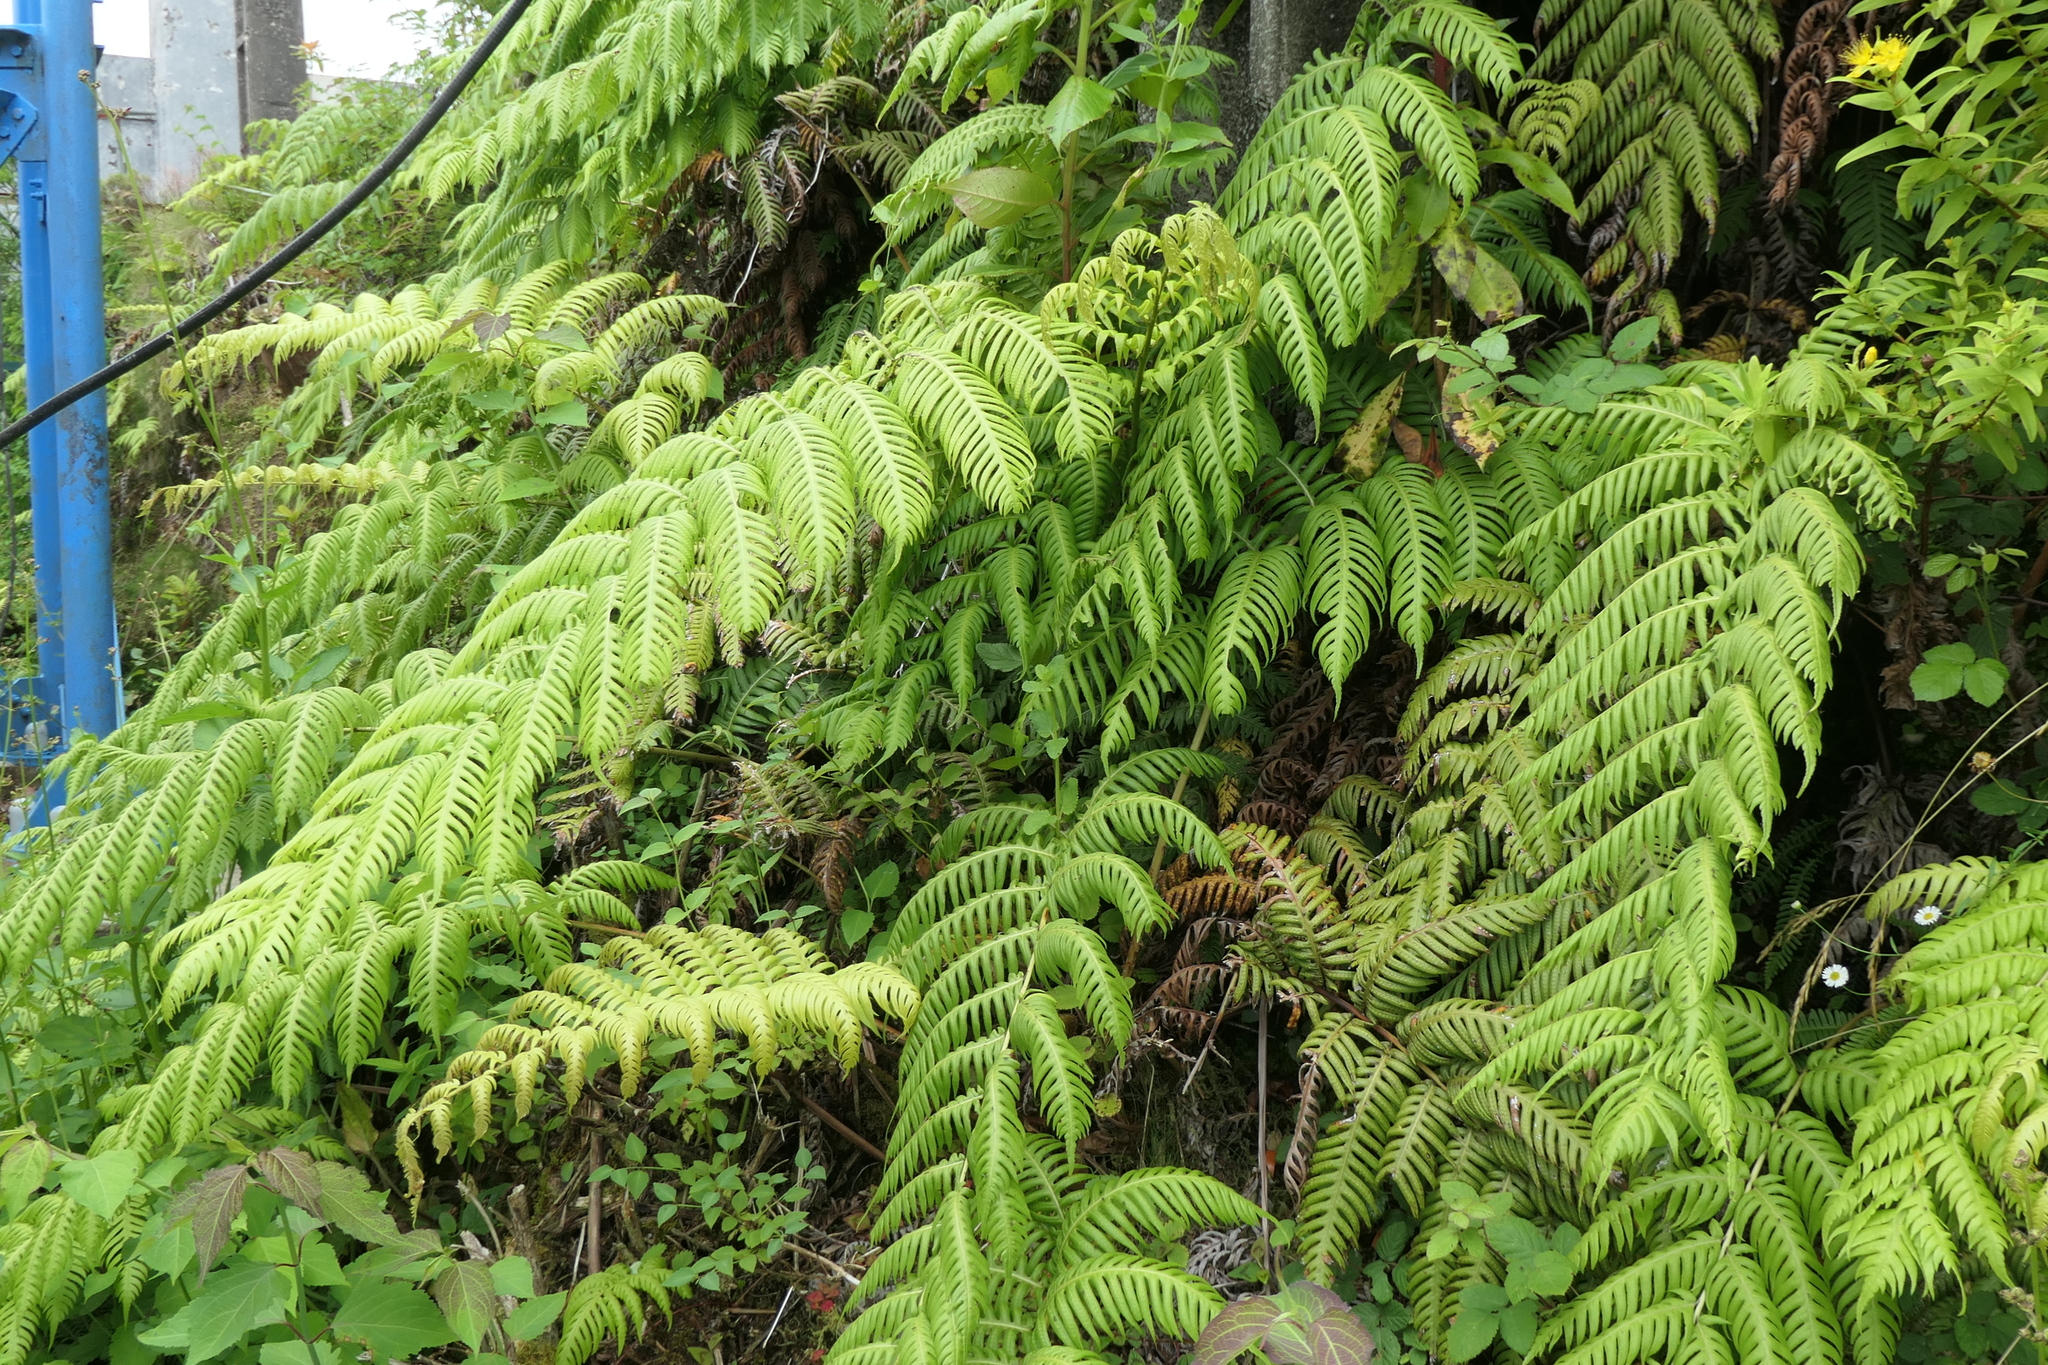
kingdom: Plantae
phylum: Tracheophyta
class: Polypodiopsida
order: Polypodiales
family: Blechnaceae
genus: Woodwardia
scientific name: Woodwardia radicans
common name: Rooting chainfern
